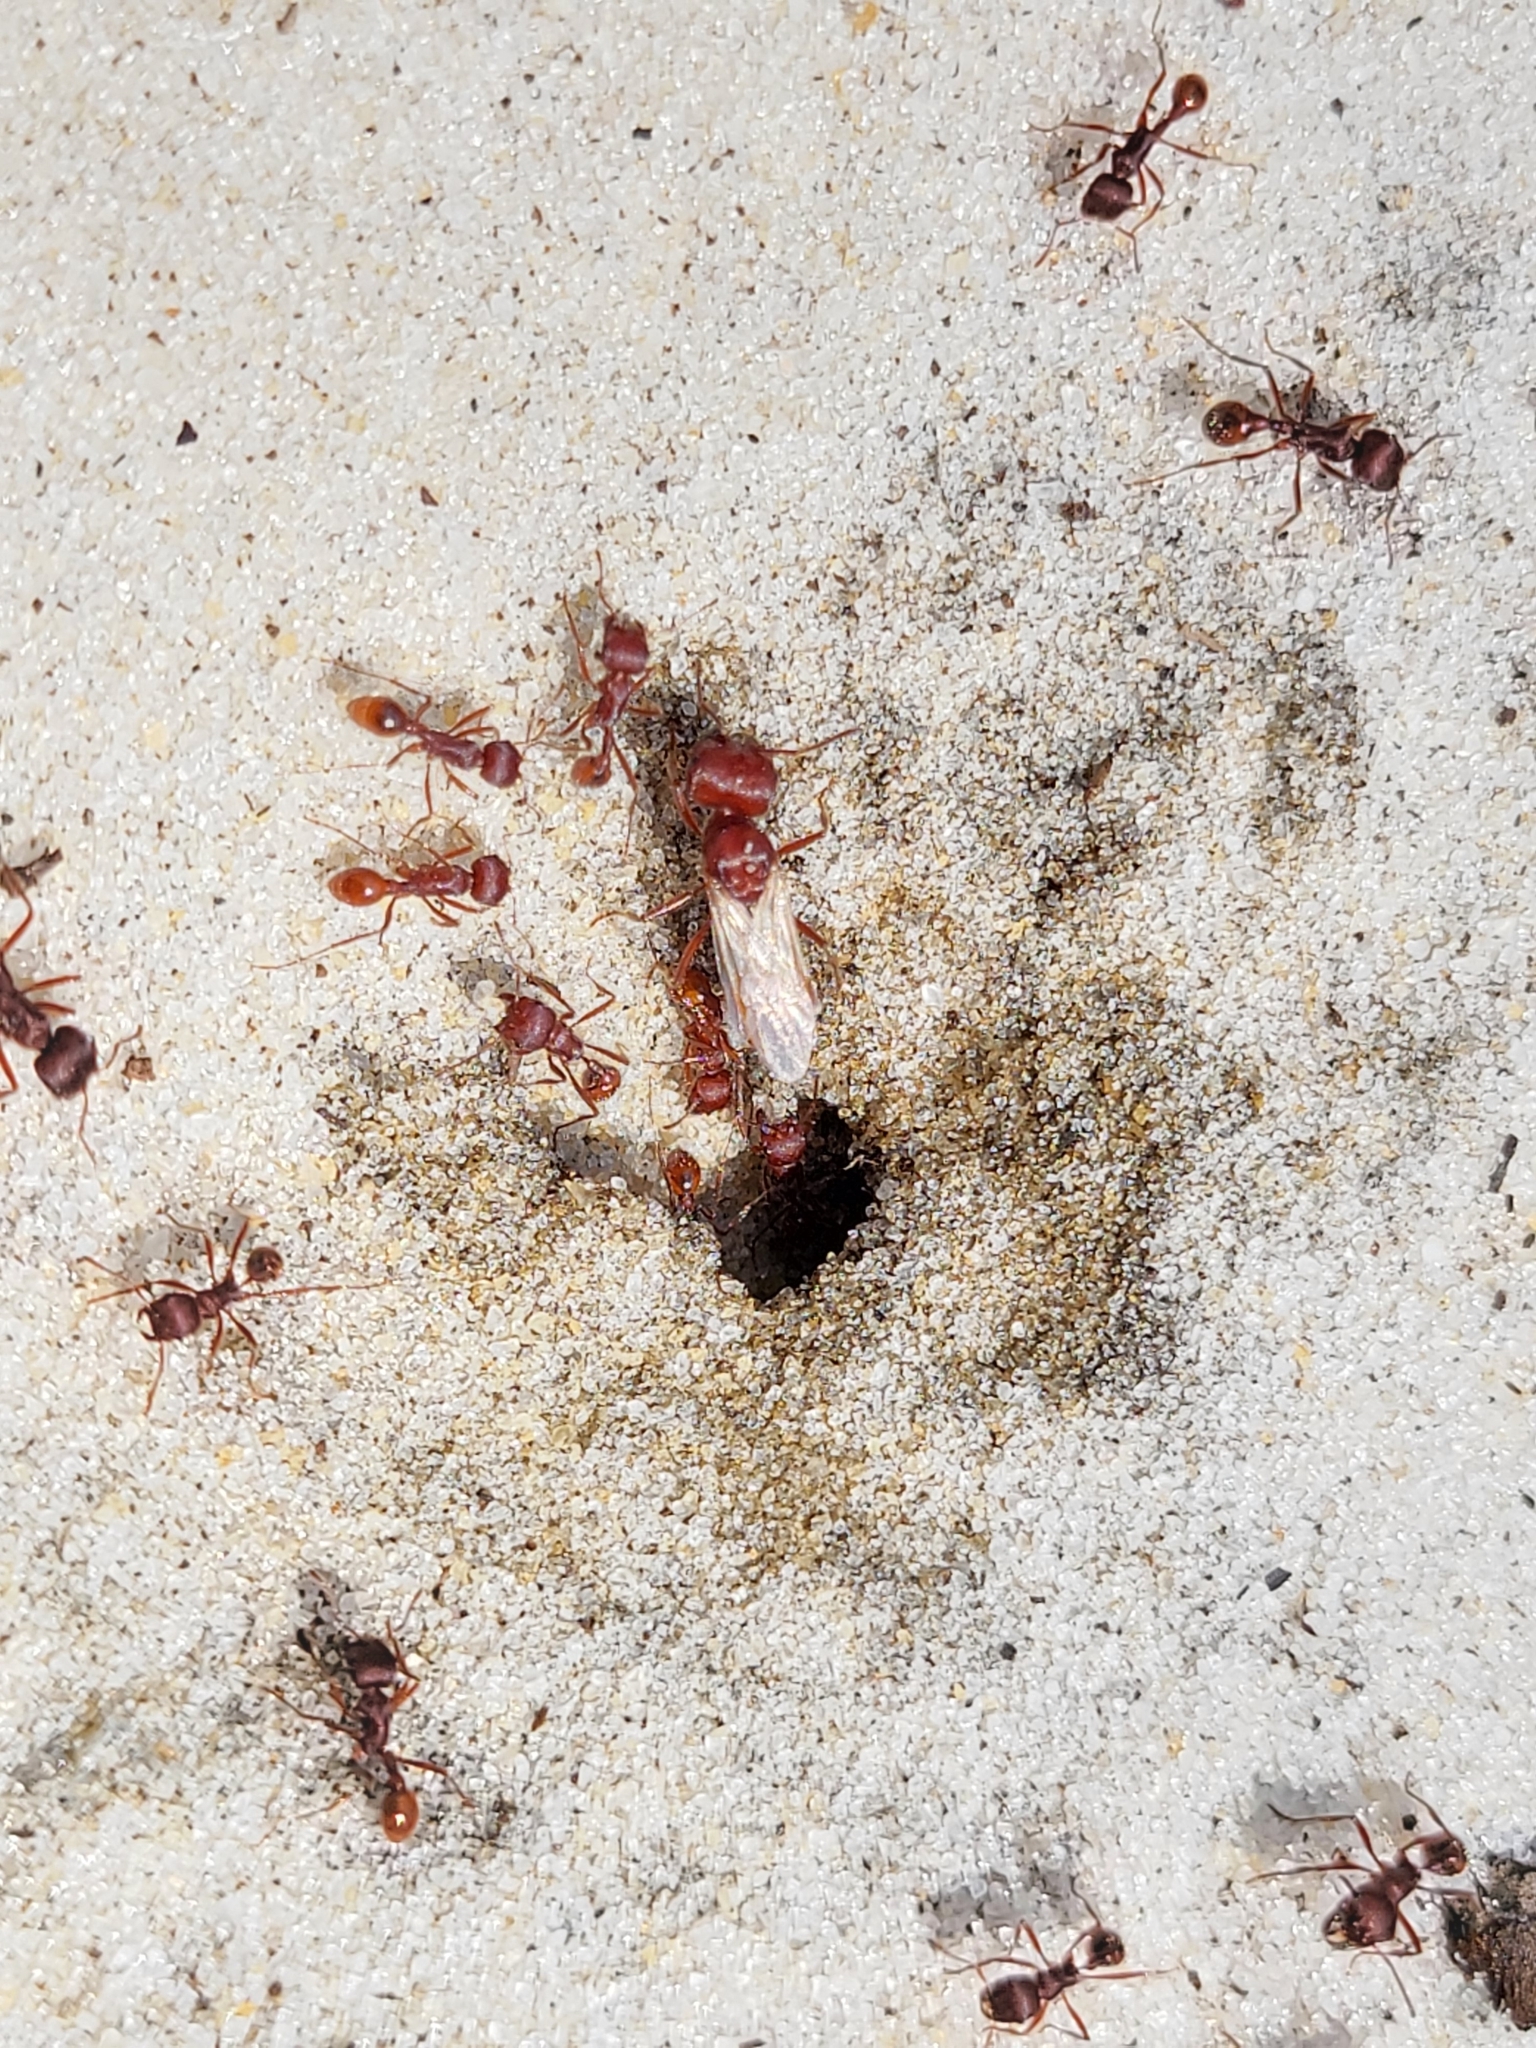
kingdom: Animalia
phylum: Arthropoda
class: Insecta
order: Hymenoptera
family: Formicidae
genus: Pogonomyrmex
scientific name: Pogonomyrmex badius
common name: Florida harvester ant
